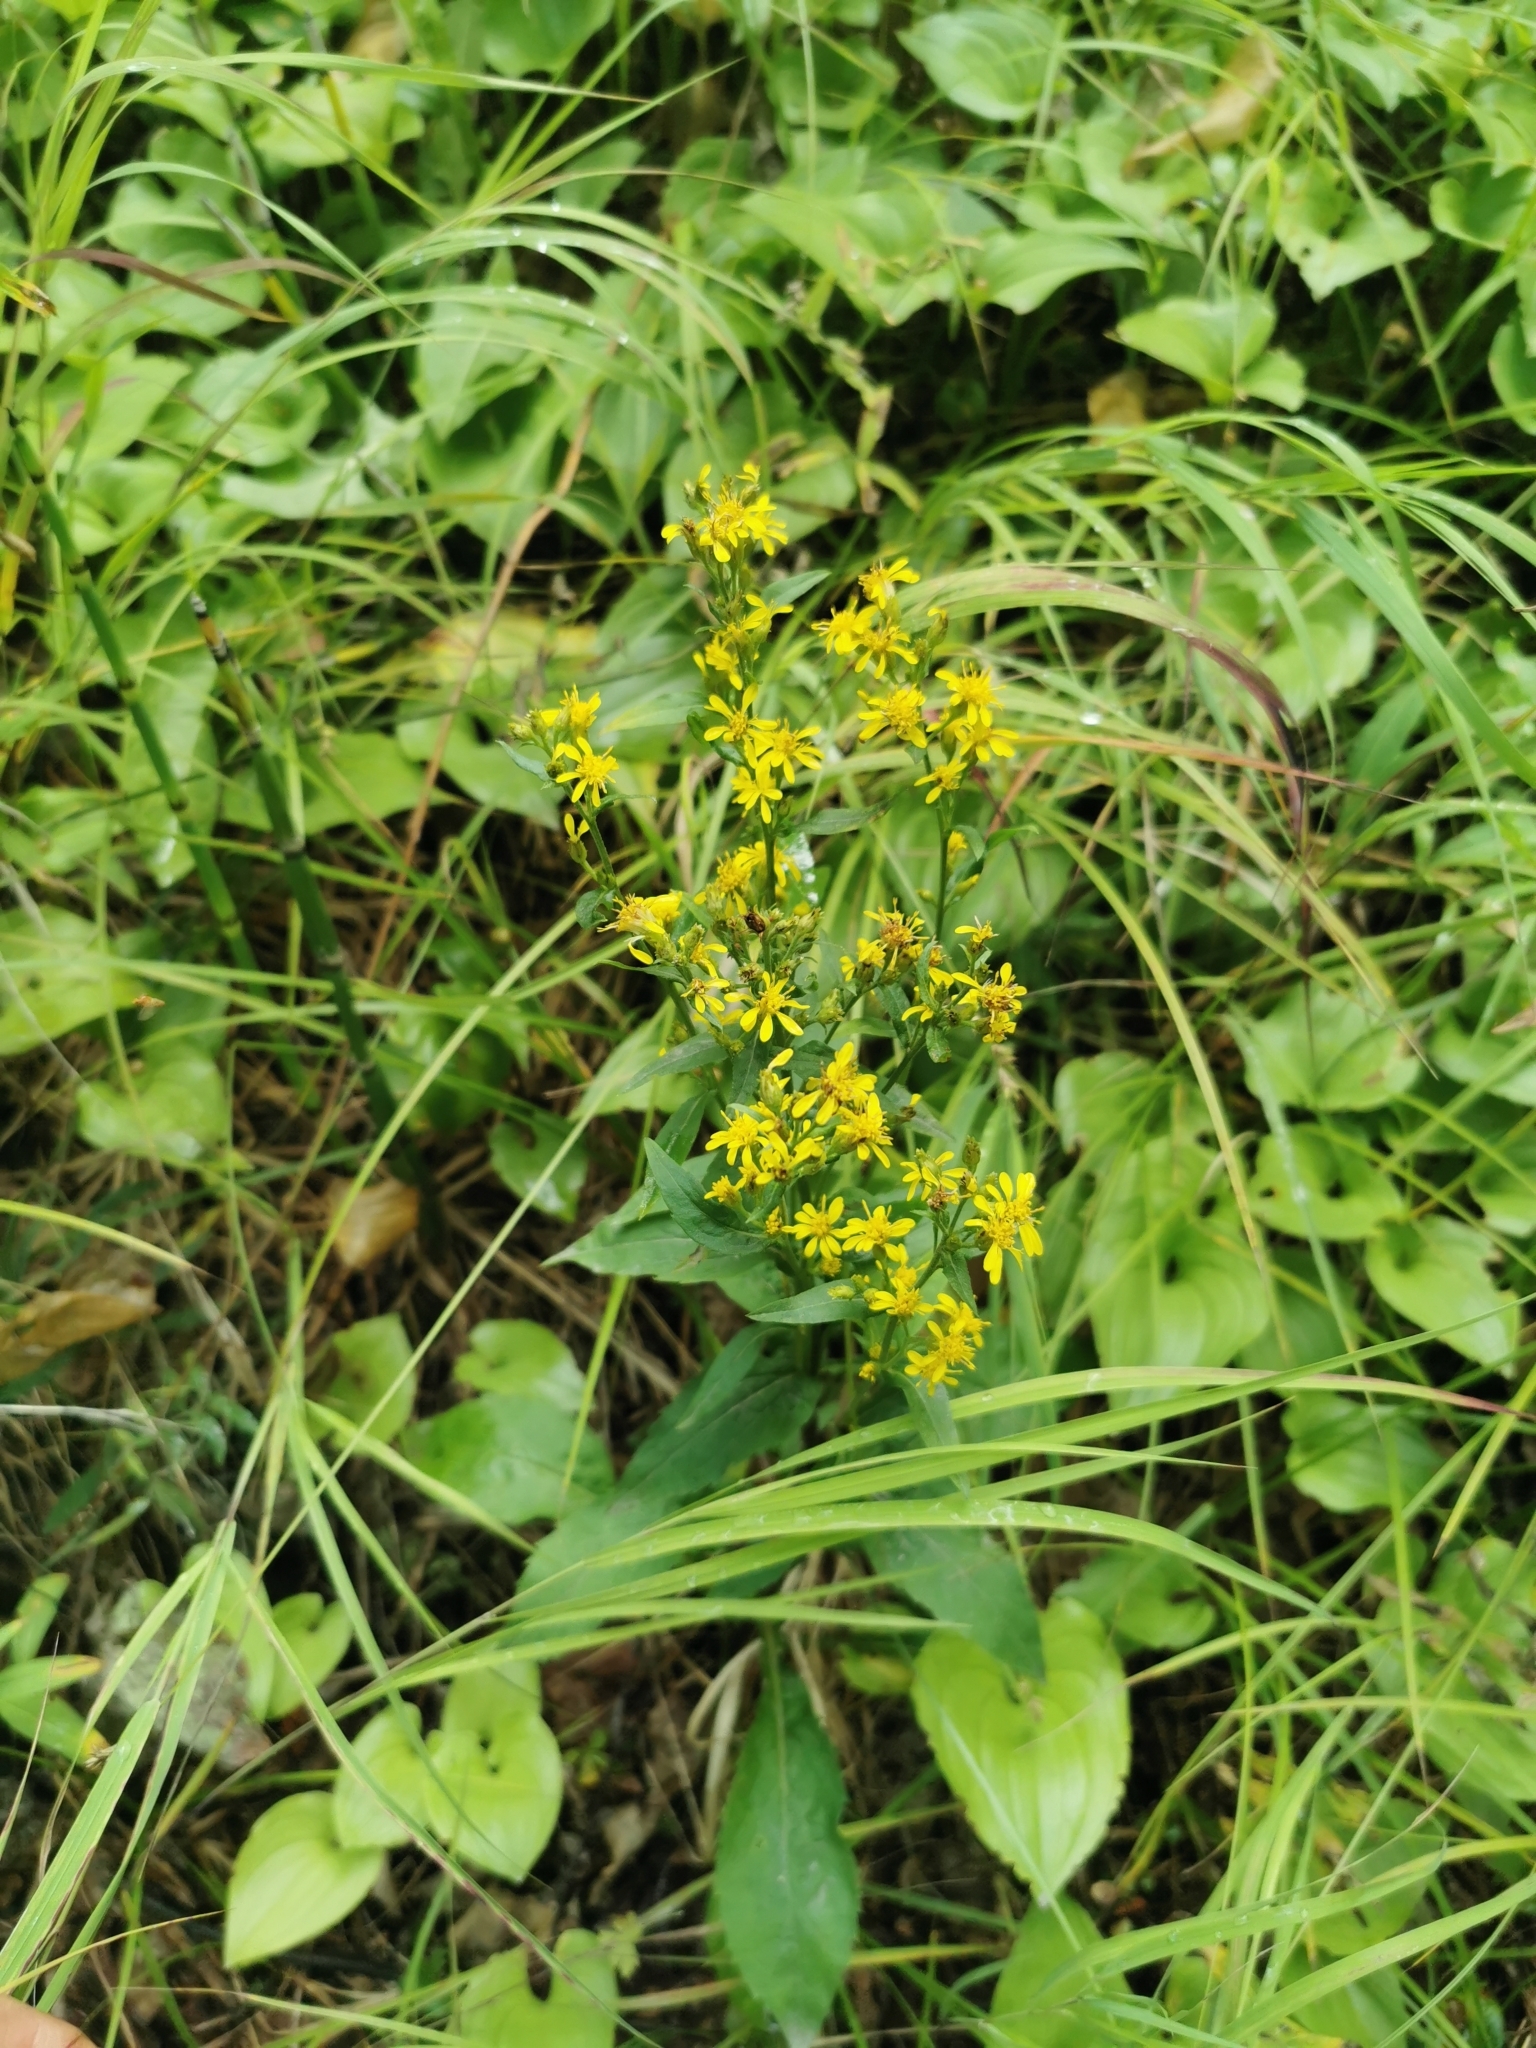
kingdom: Plantae
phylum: Tracheophyta
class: Magnoliopsida
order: Asterales
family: Asteraceae
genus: Solidago
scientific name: Solidago cuprea
